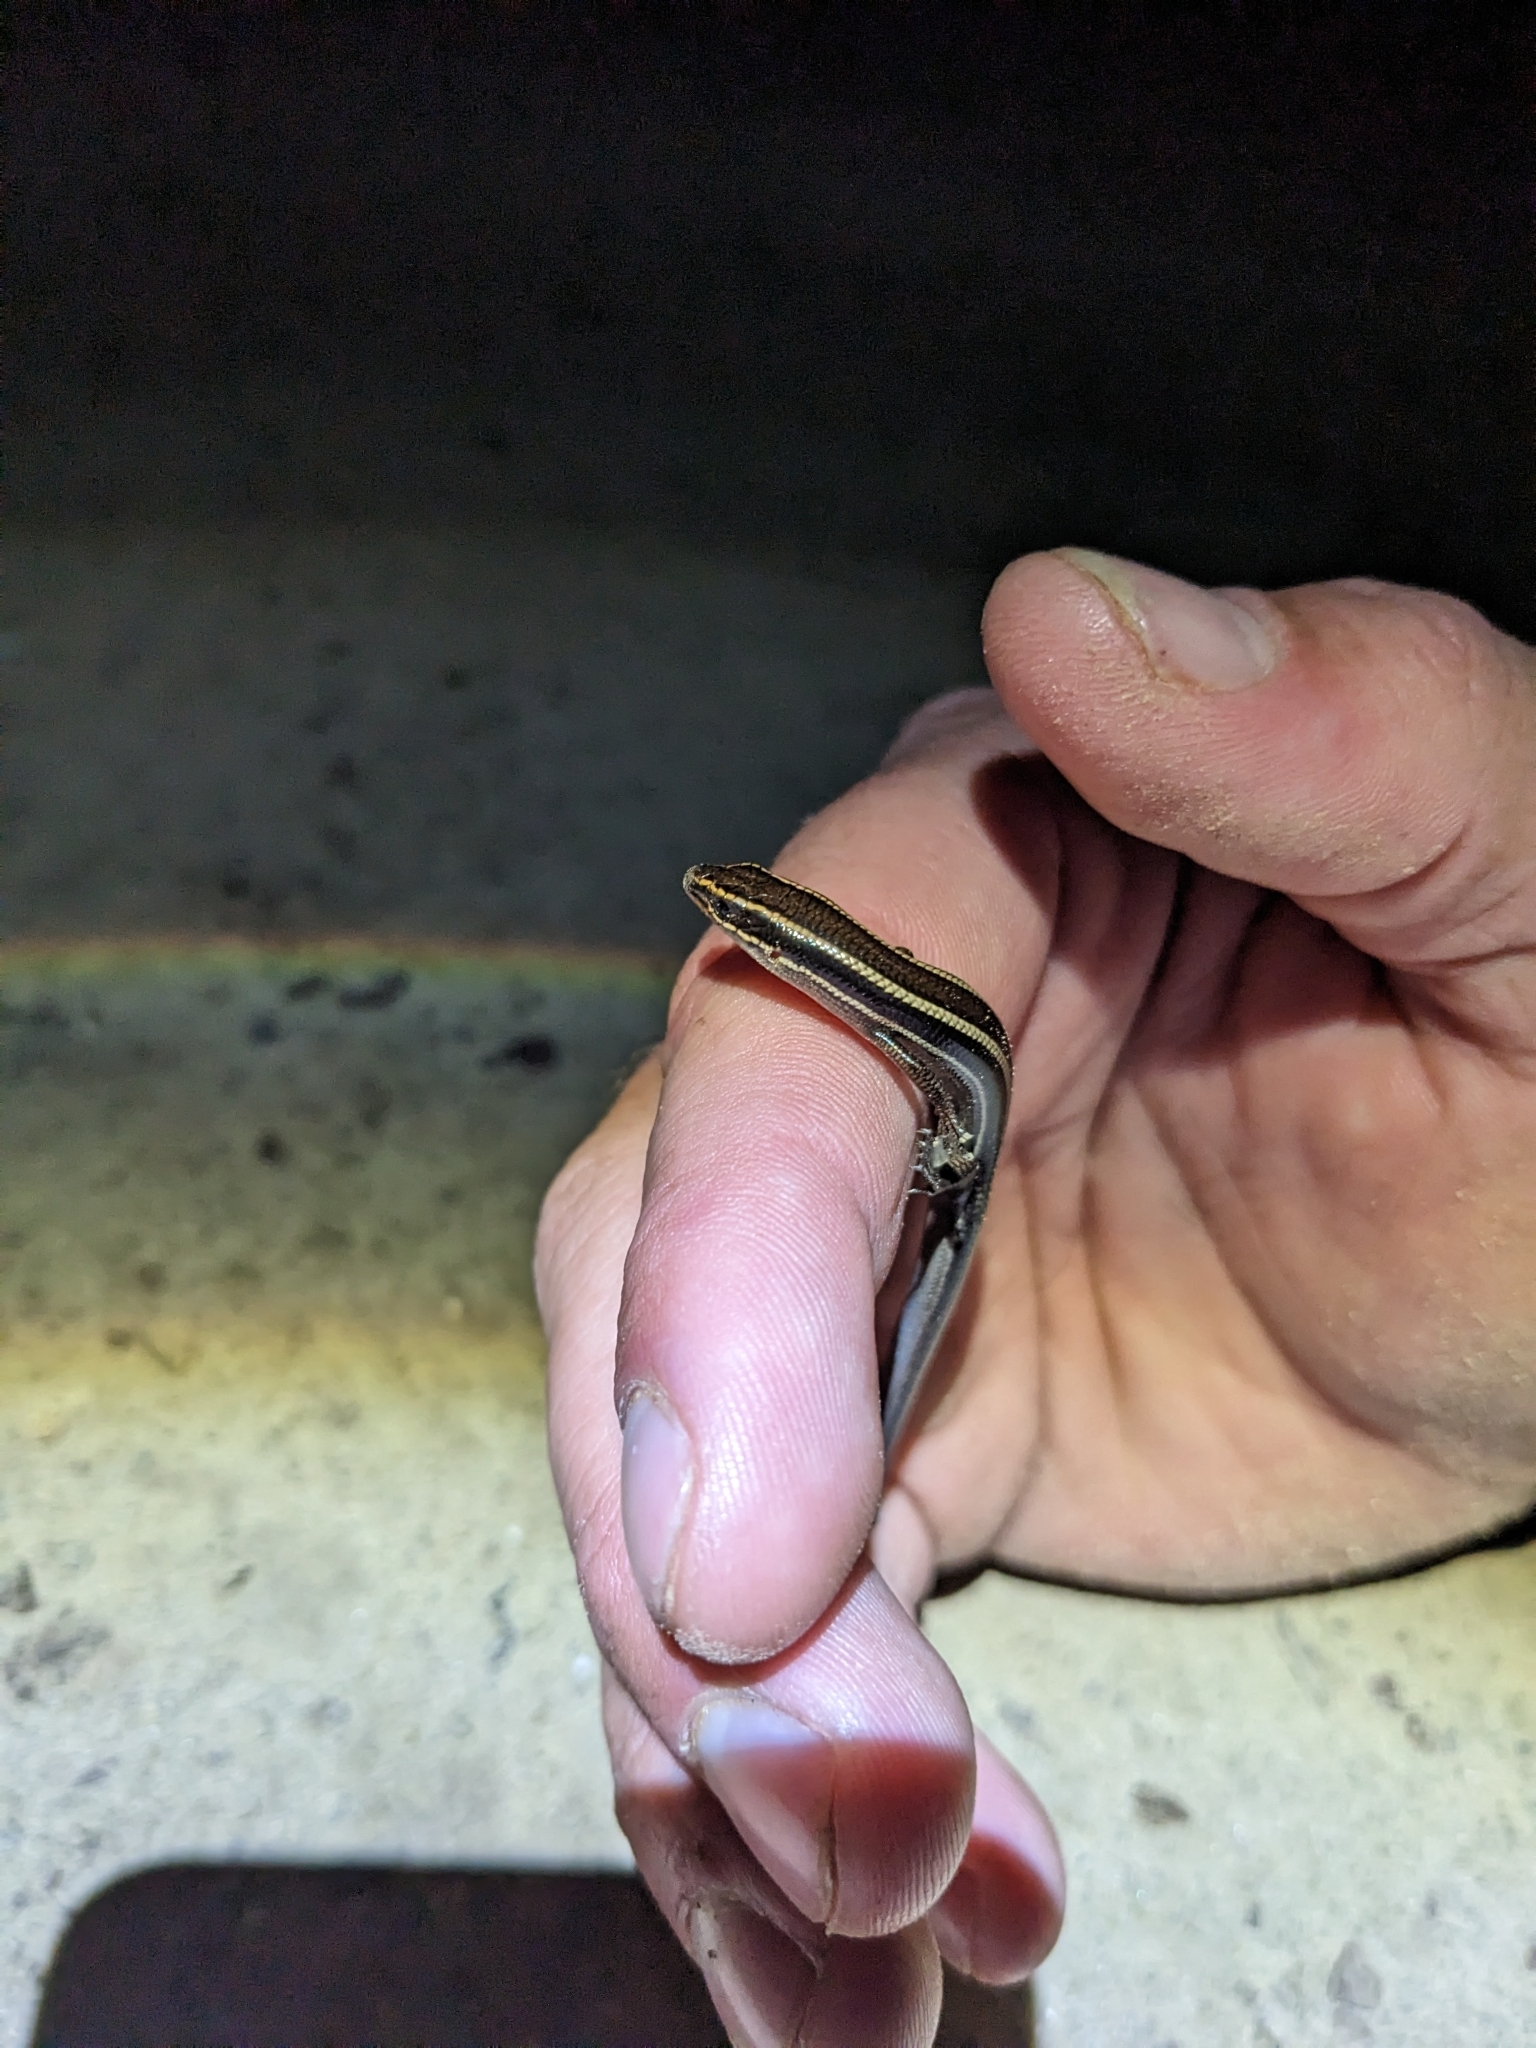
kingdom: Animalia
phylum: Chordata
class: Squamata
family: Scincidae
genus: Plestiodon
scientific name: Plestiodon skiltonianus
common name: Coronado island skink [interparietalis]
